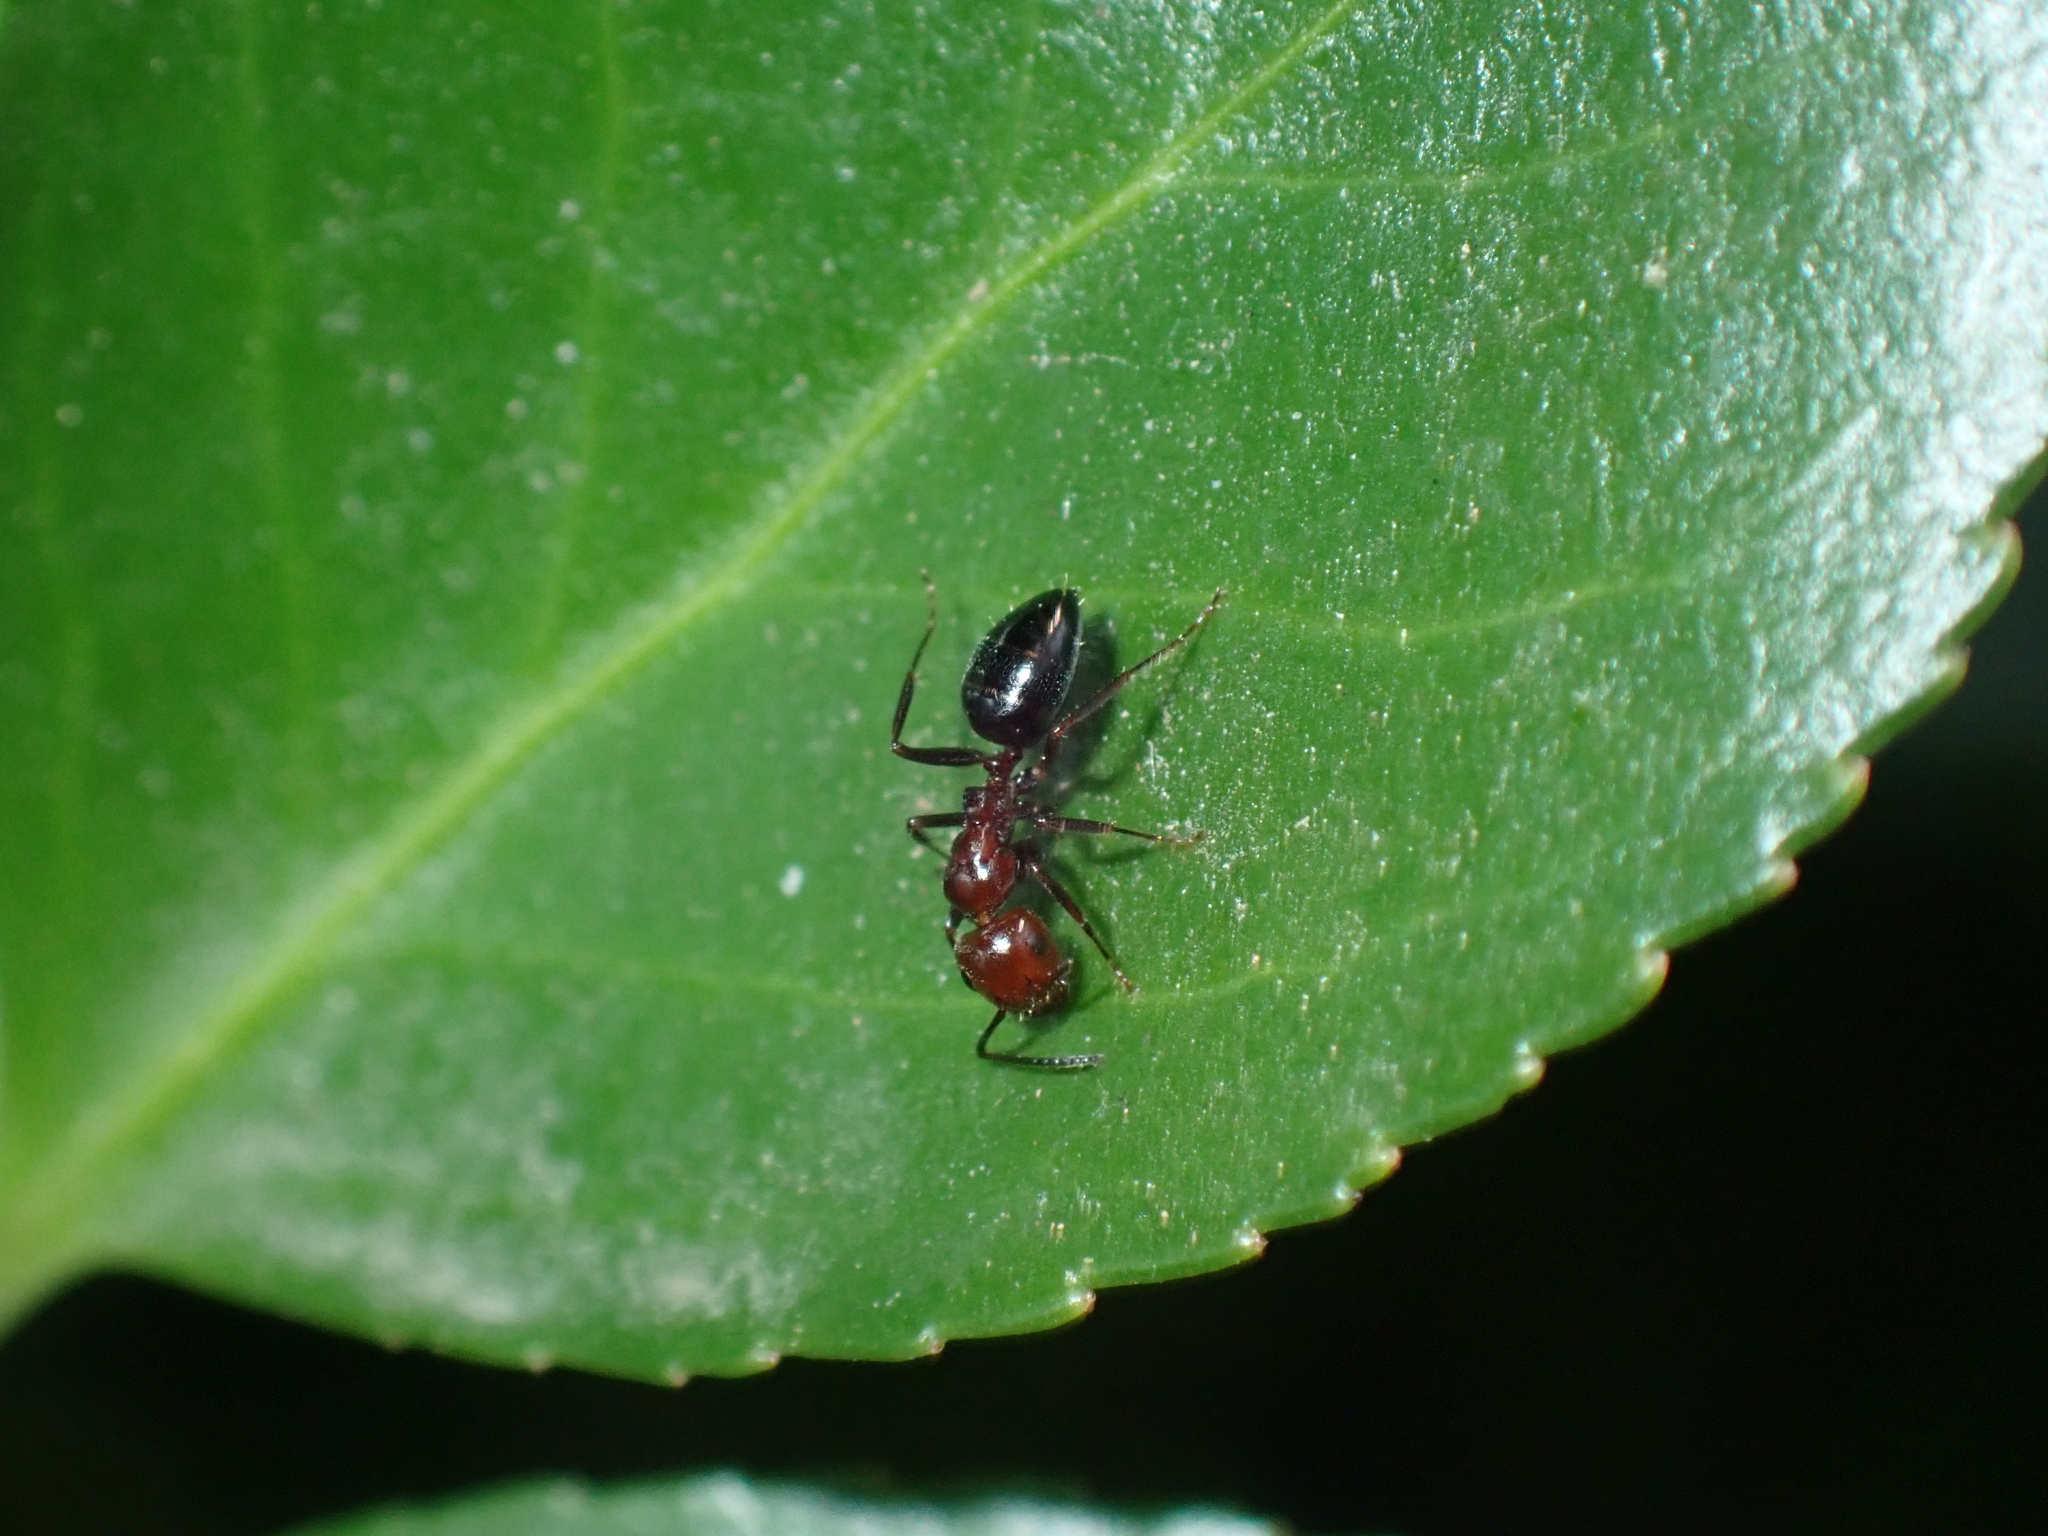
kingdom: Animalia
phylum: Arthropoda
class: Insecta
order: Hymenoptera
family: Formicidae
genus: Camponotus
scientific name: Camponotus lateralis
